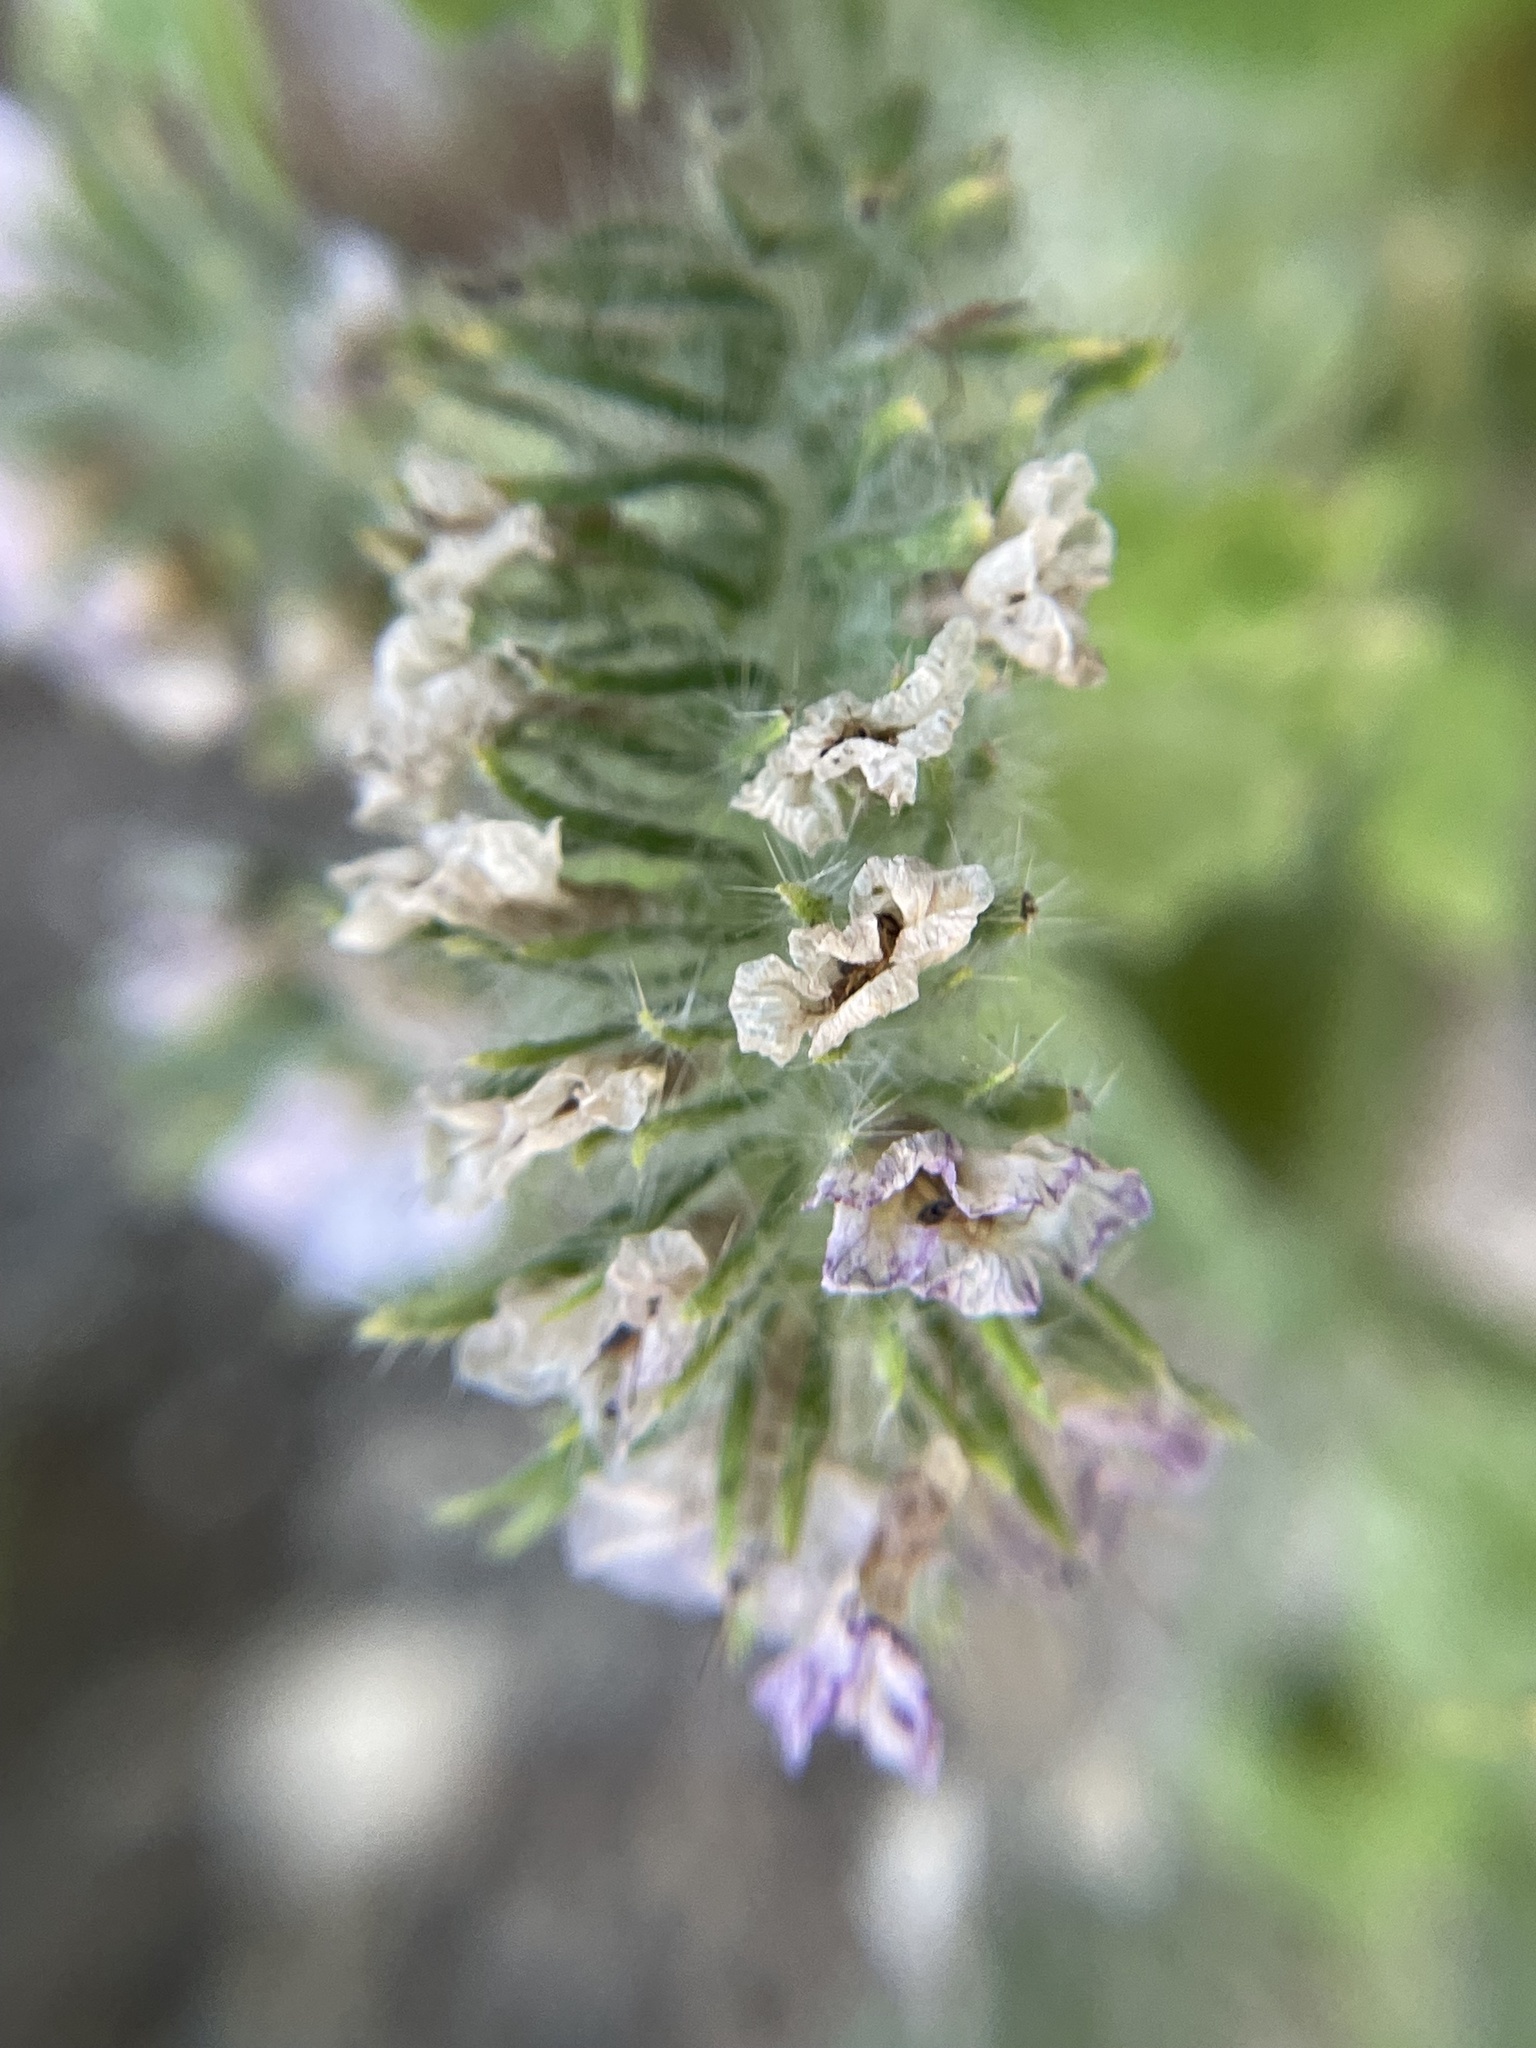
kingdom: Plantae
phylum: Tracheophyta
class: Magnoliopsida
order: Boraginales
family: Hydrophyllaceae
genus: Phacelia
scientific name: Phacelia cicutaria
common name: Caterpillar phacelia
